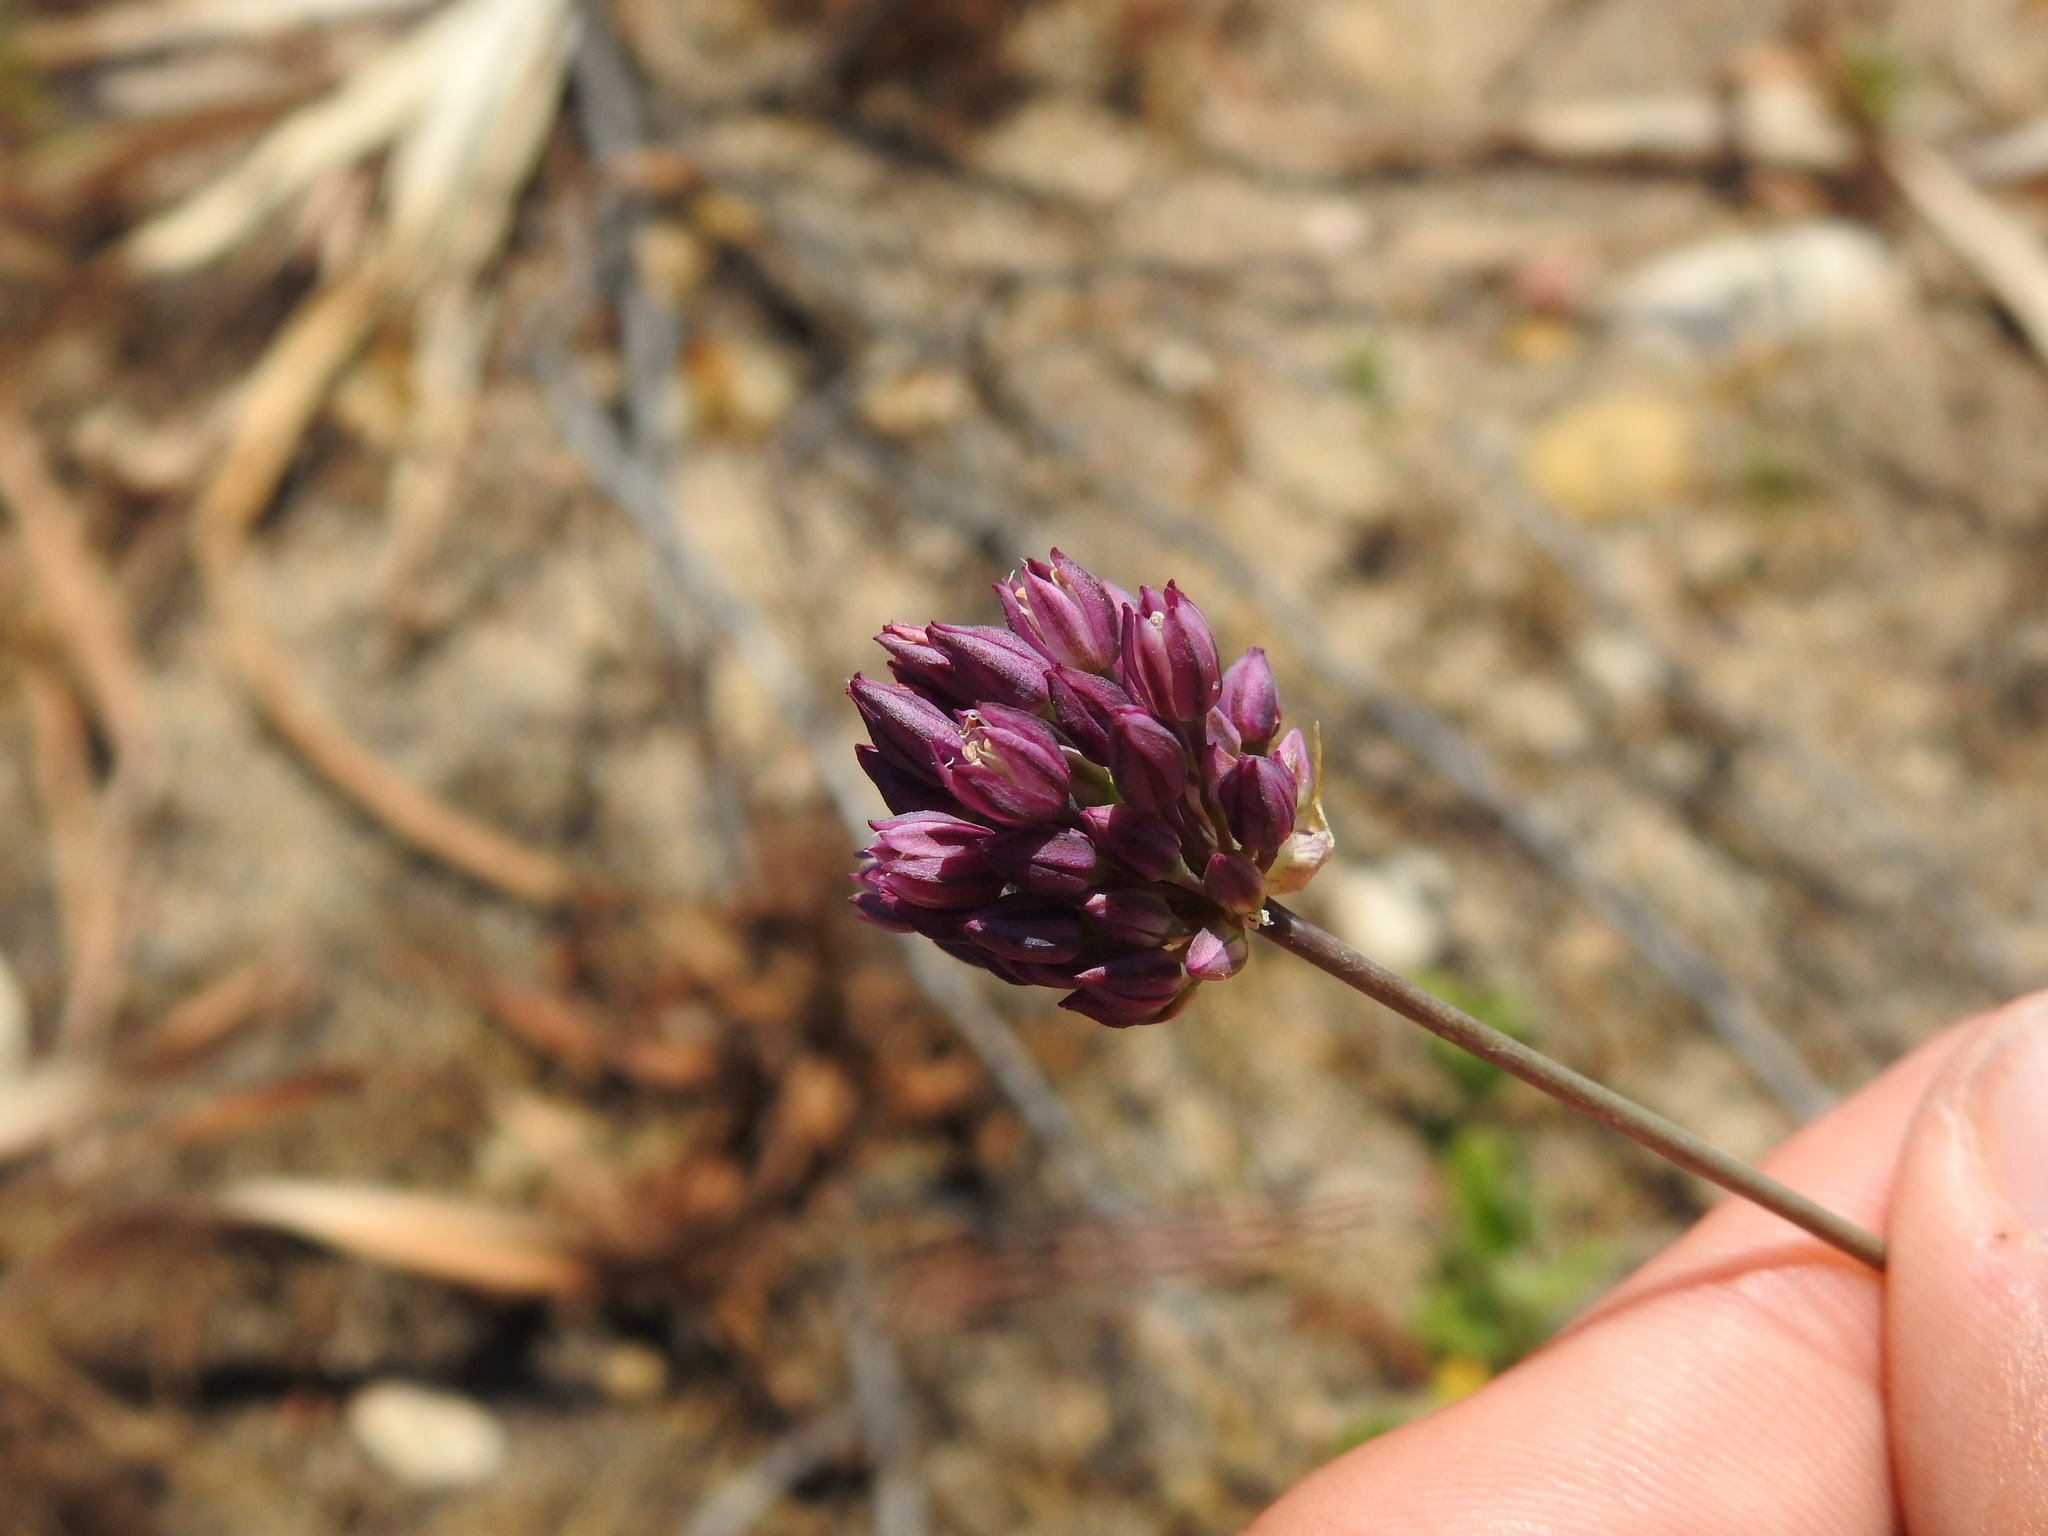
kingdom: Plantae
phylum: Tracheophyta
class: Liliopsida
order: Asparagales
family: Amaryllidaceae
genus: Allium
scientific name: Allium pruinatum
